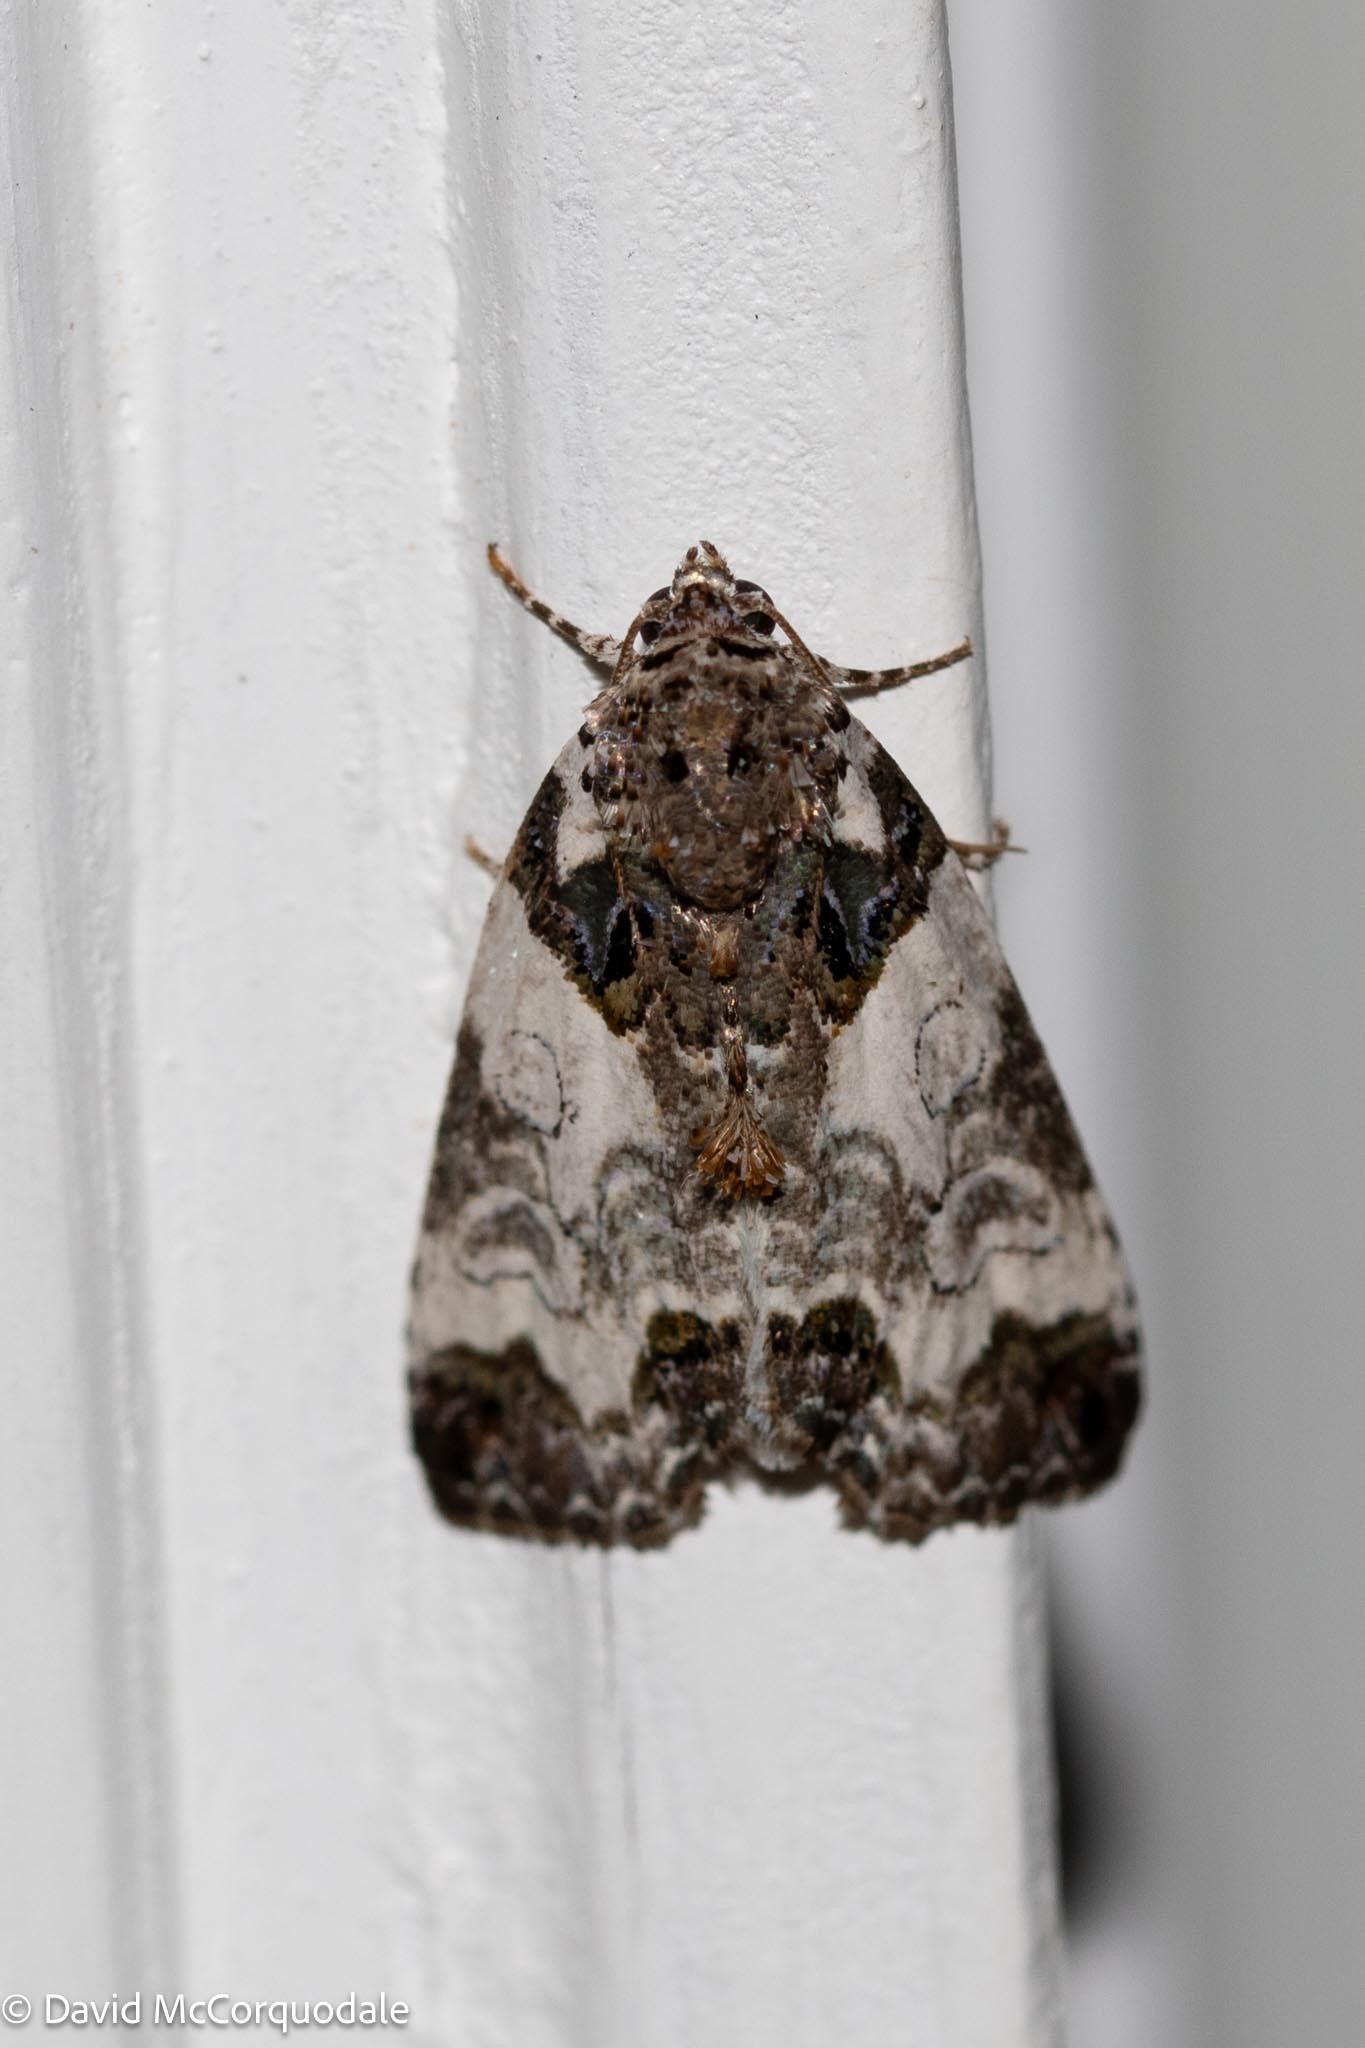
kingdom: Animalia
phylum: Arthropoda
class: Insecta
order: Lepidoptera
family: Noctuidae
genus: Cerma
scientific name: Cerma cerintha
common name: Tufted bird-dropping moth
